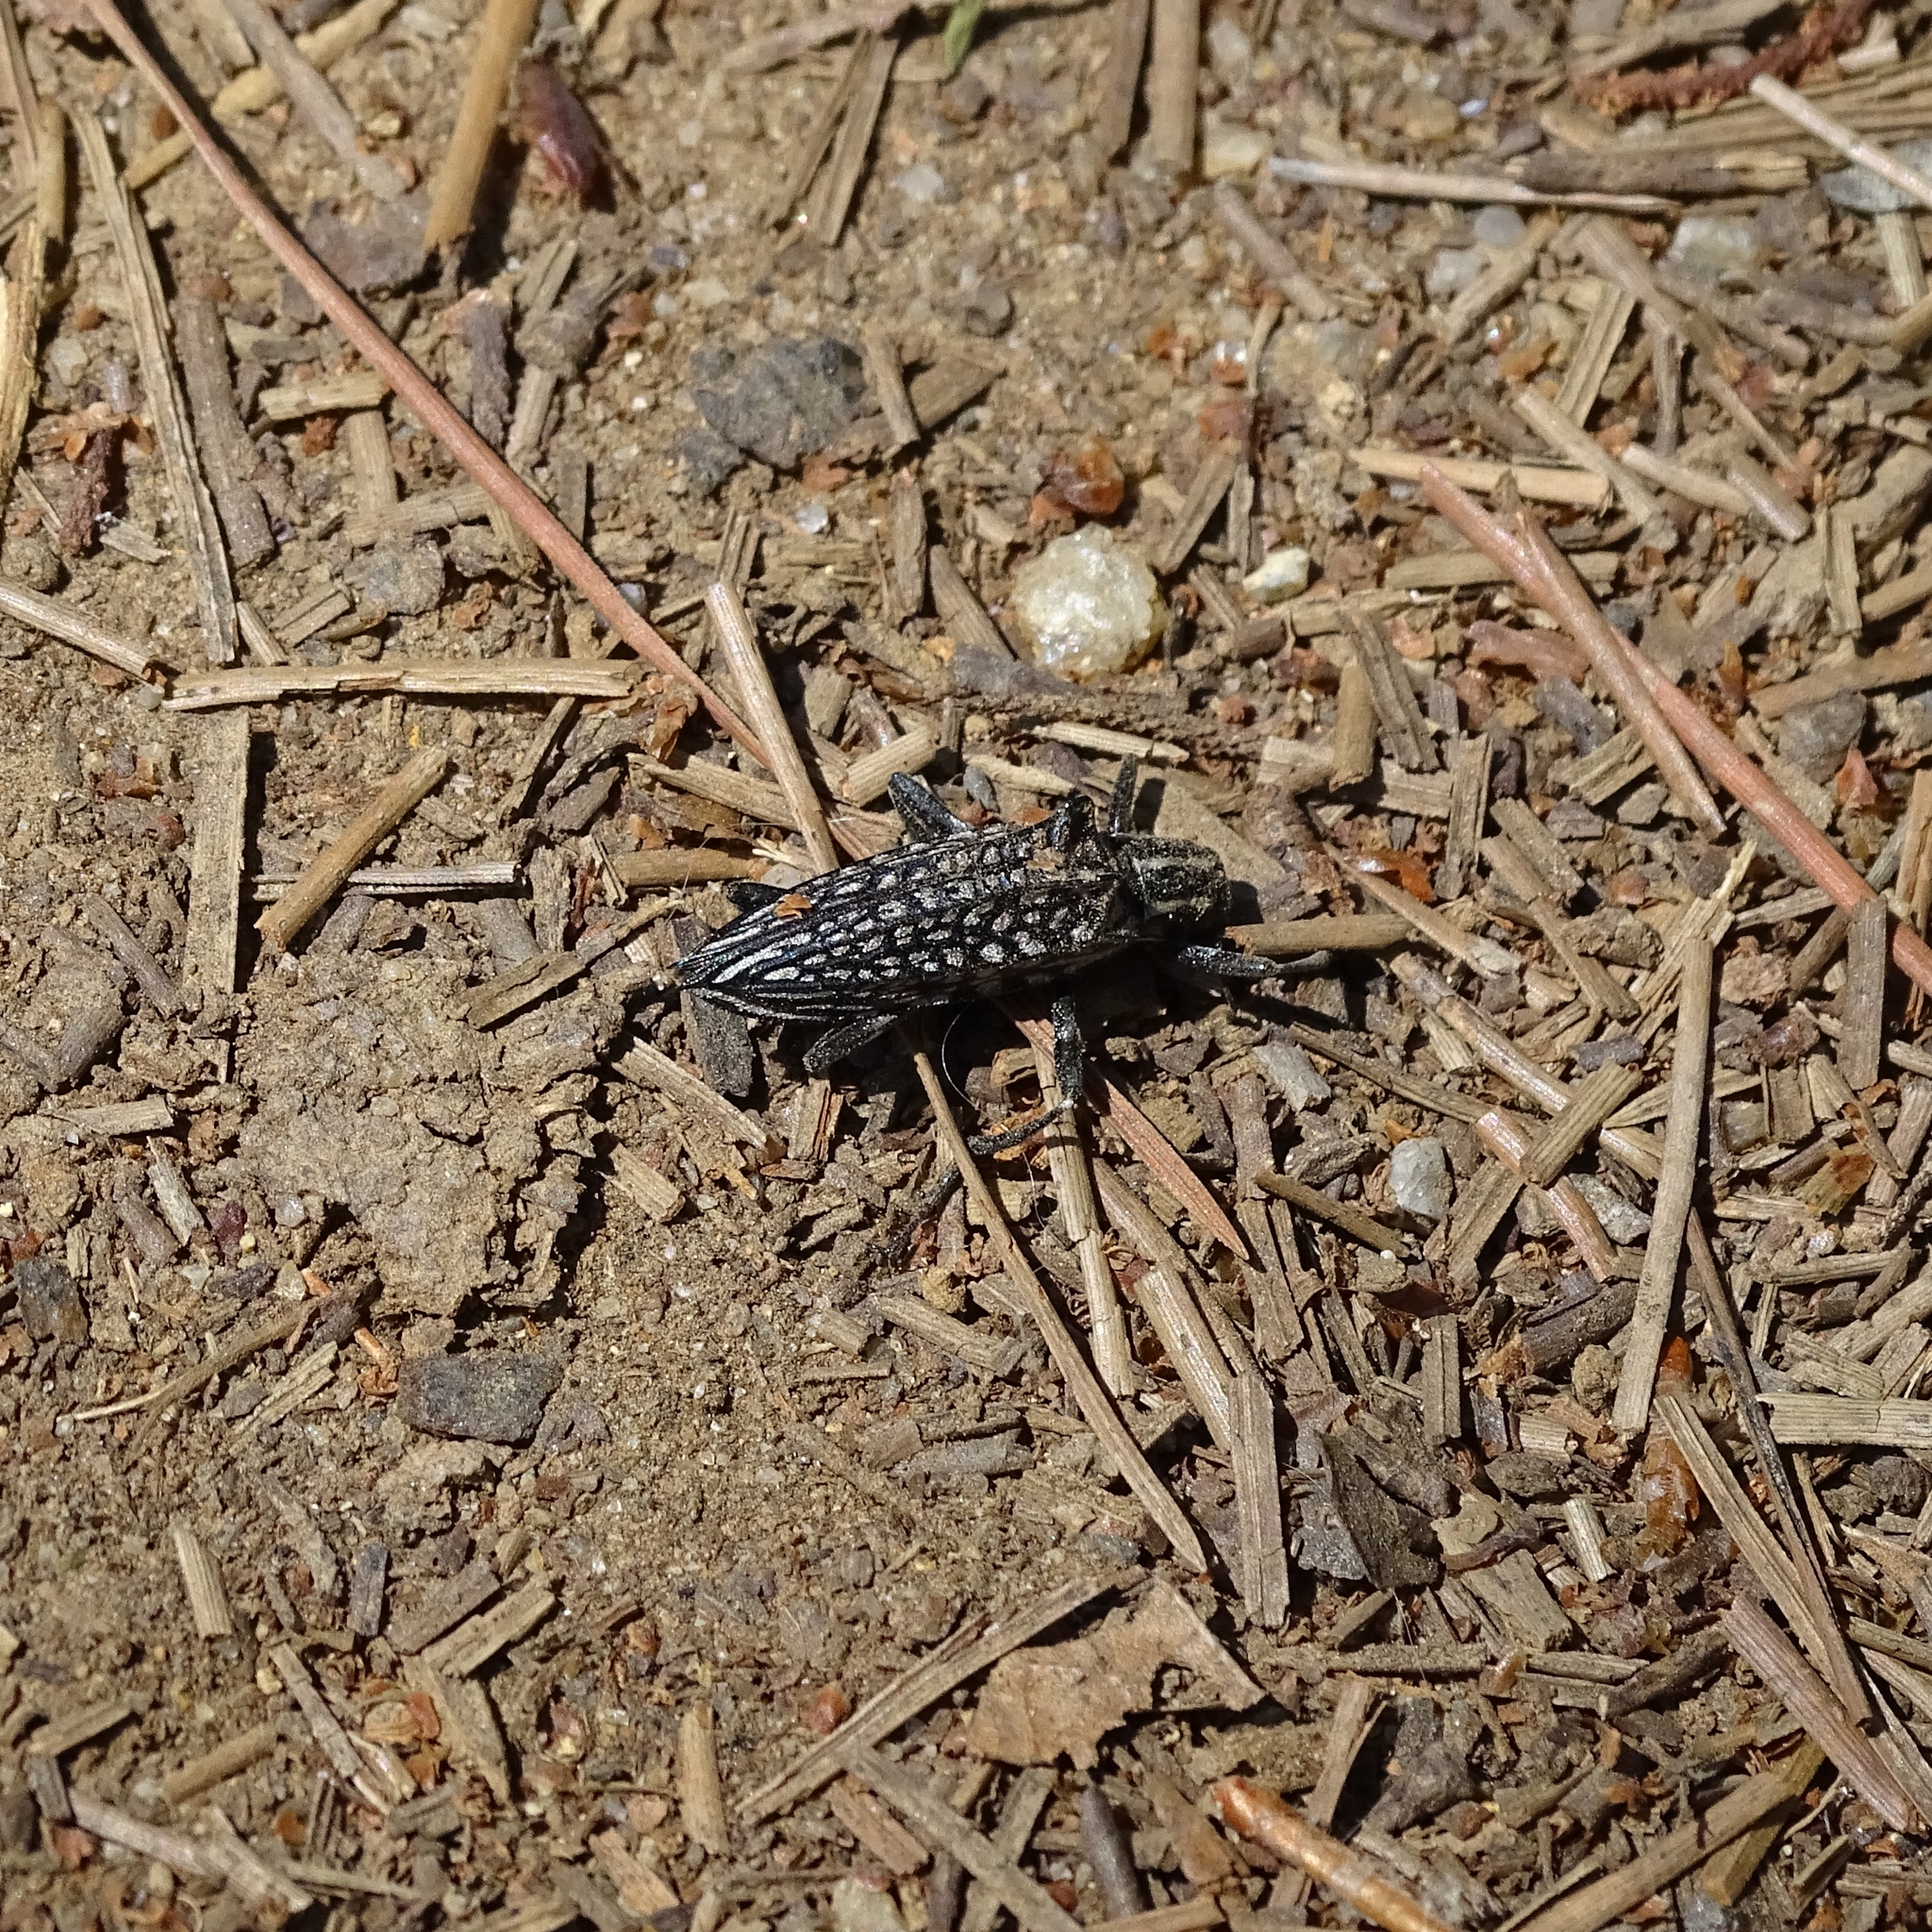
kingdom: Animalia
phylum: Arthropoda
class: Insecta
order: Coleoptera
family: Tenebrionidae
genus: Homocyrtus
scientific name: Homocyrtus
